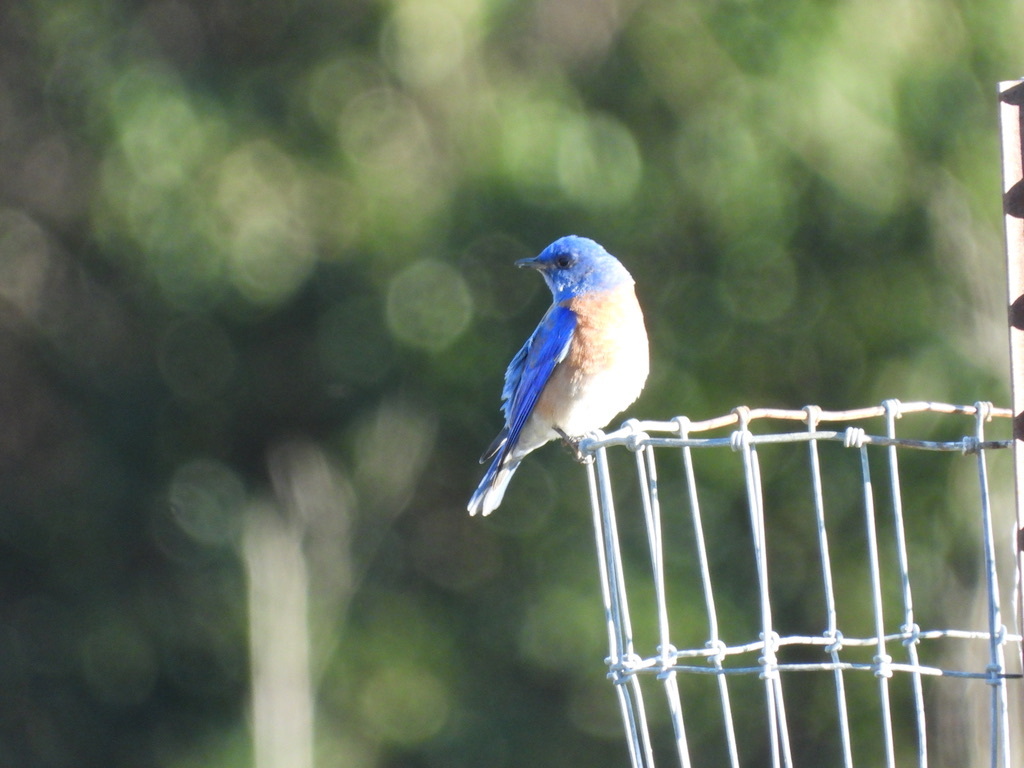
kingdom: Animalia
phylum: Chordata
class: Aves
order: Passeriformes
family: Turdidae
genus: Sialia
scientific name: Sialia mexicana
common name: Western bluebird
